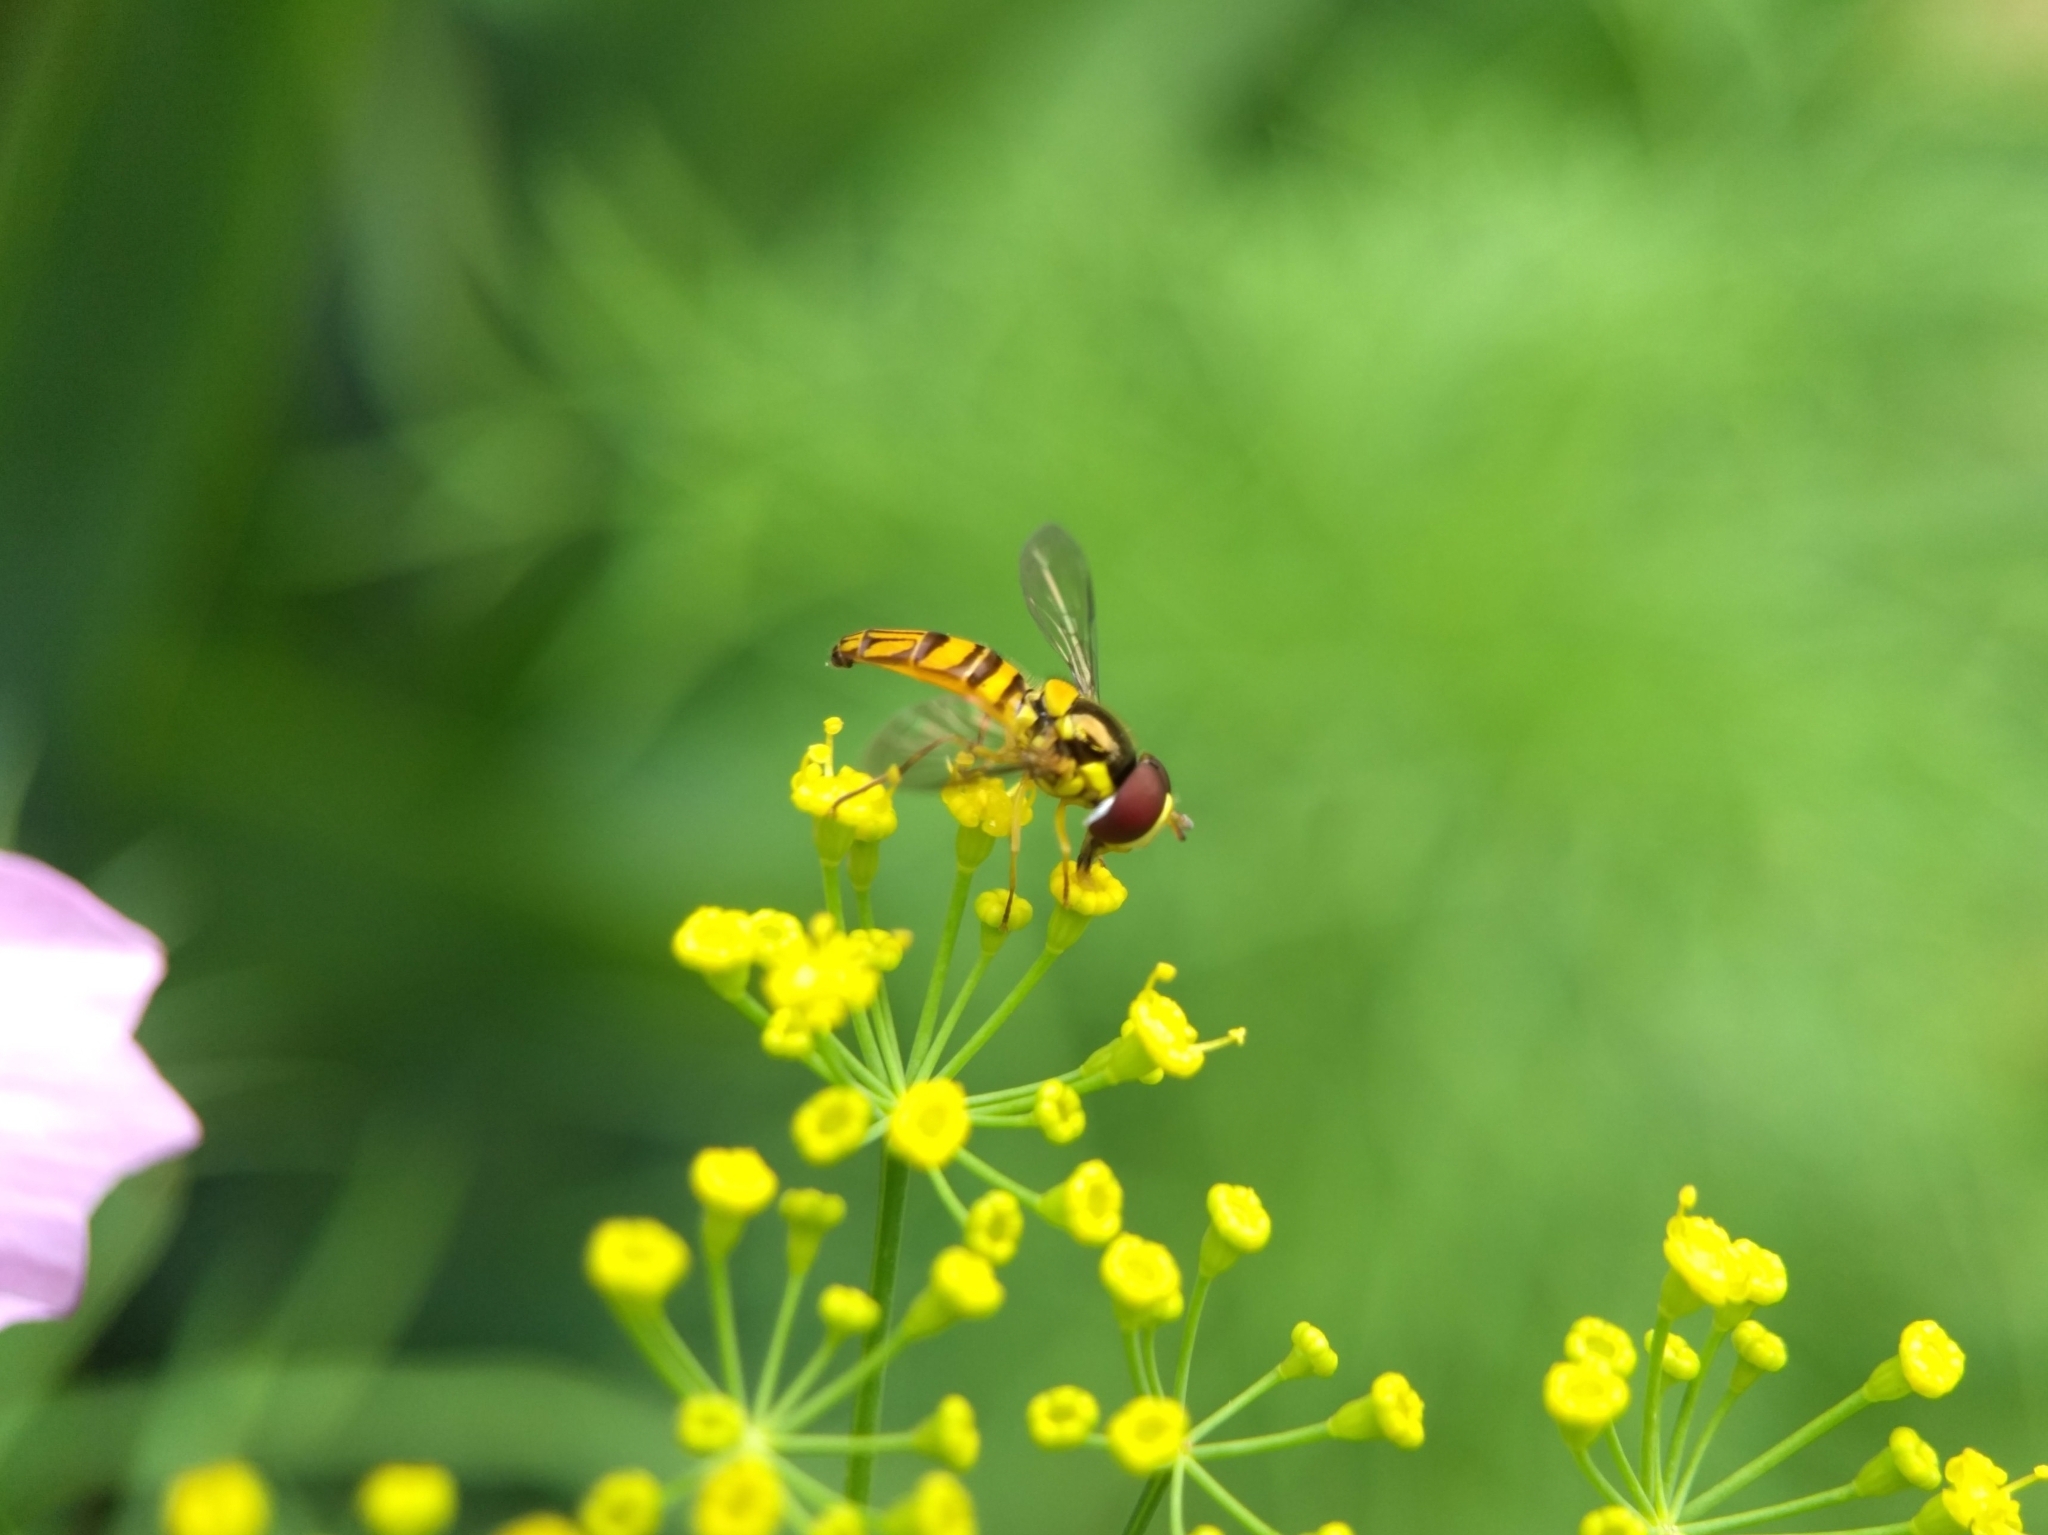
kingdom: Animalia
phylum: Arthropoda
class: Insecta
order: Diptera
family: Syrphidae
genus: Allograpta
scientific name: Allograpta obliqua
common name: Common oblique syrphid
